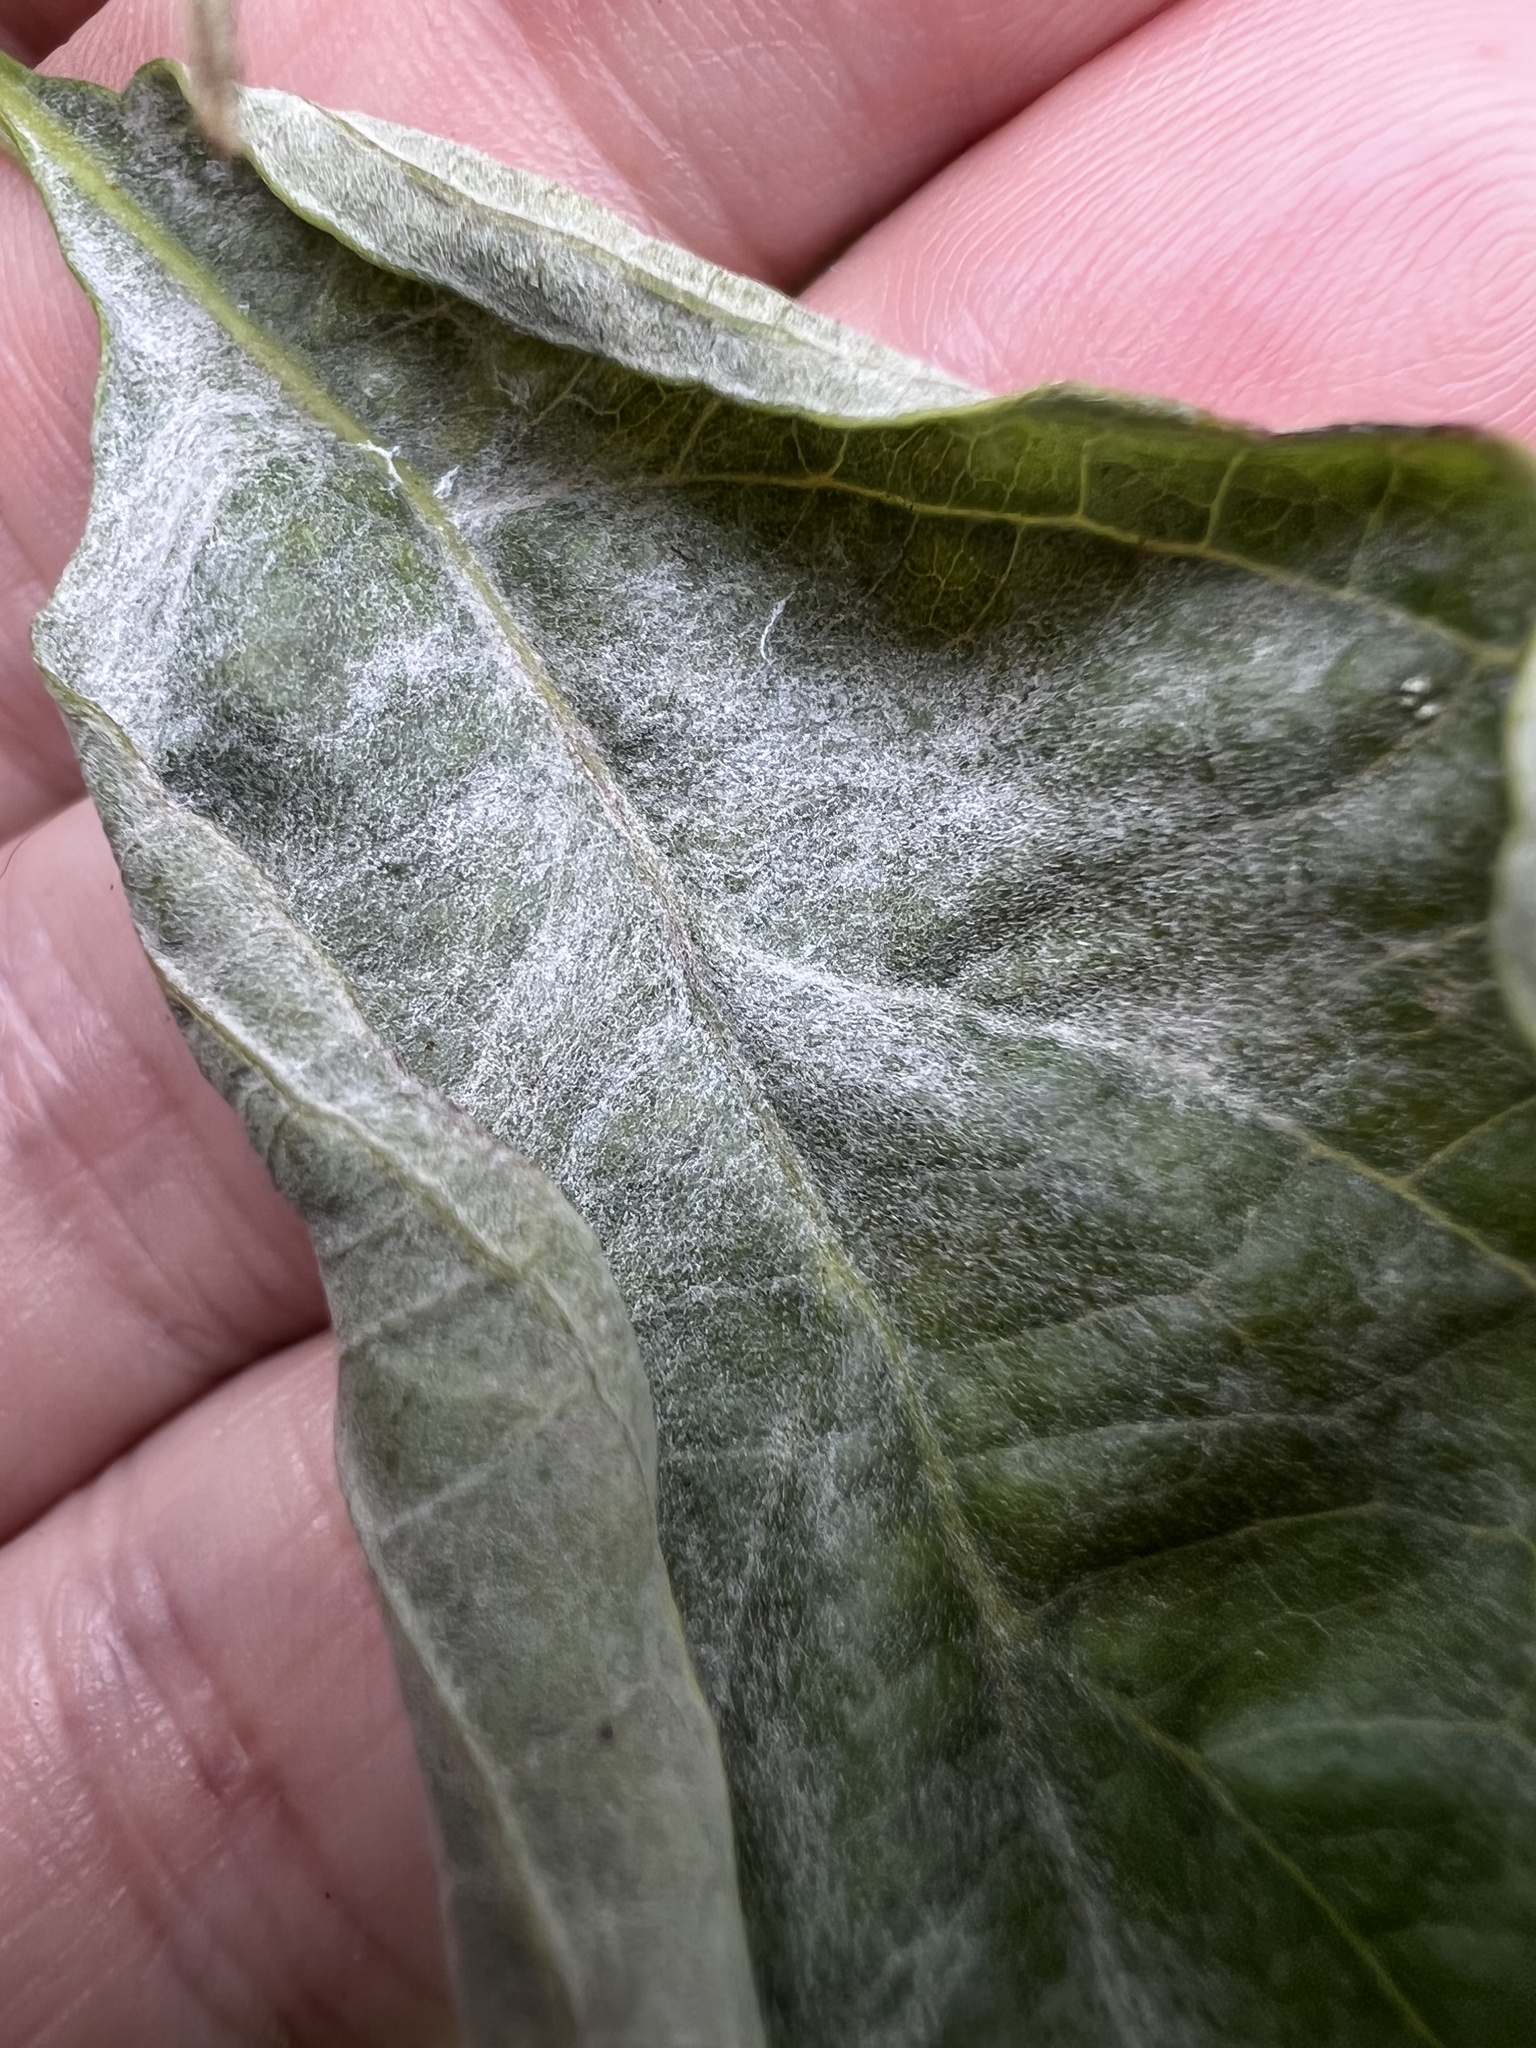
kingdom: Fungi
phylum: Ascomycota
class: Leotiomycetes
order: Helotiales
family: Erysiphaceae
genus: Erysiphe
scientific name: Erysiphe
